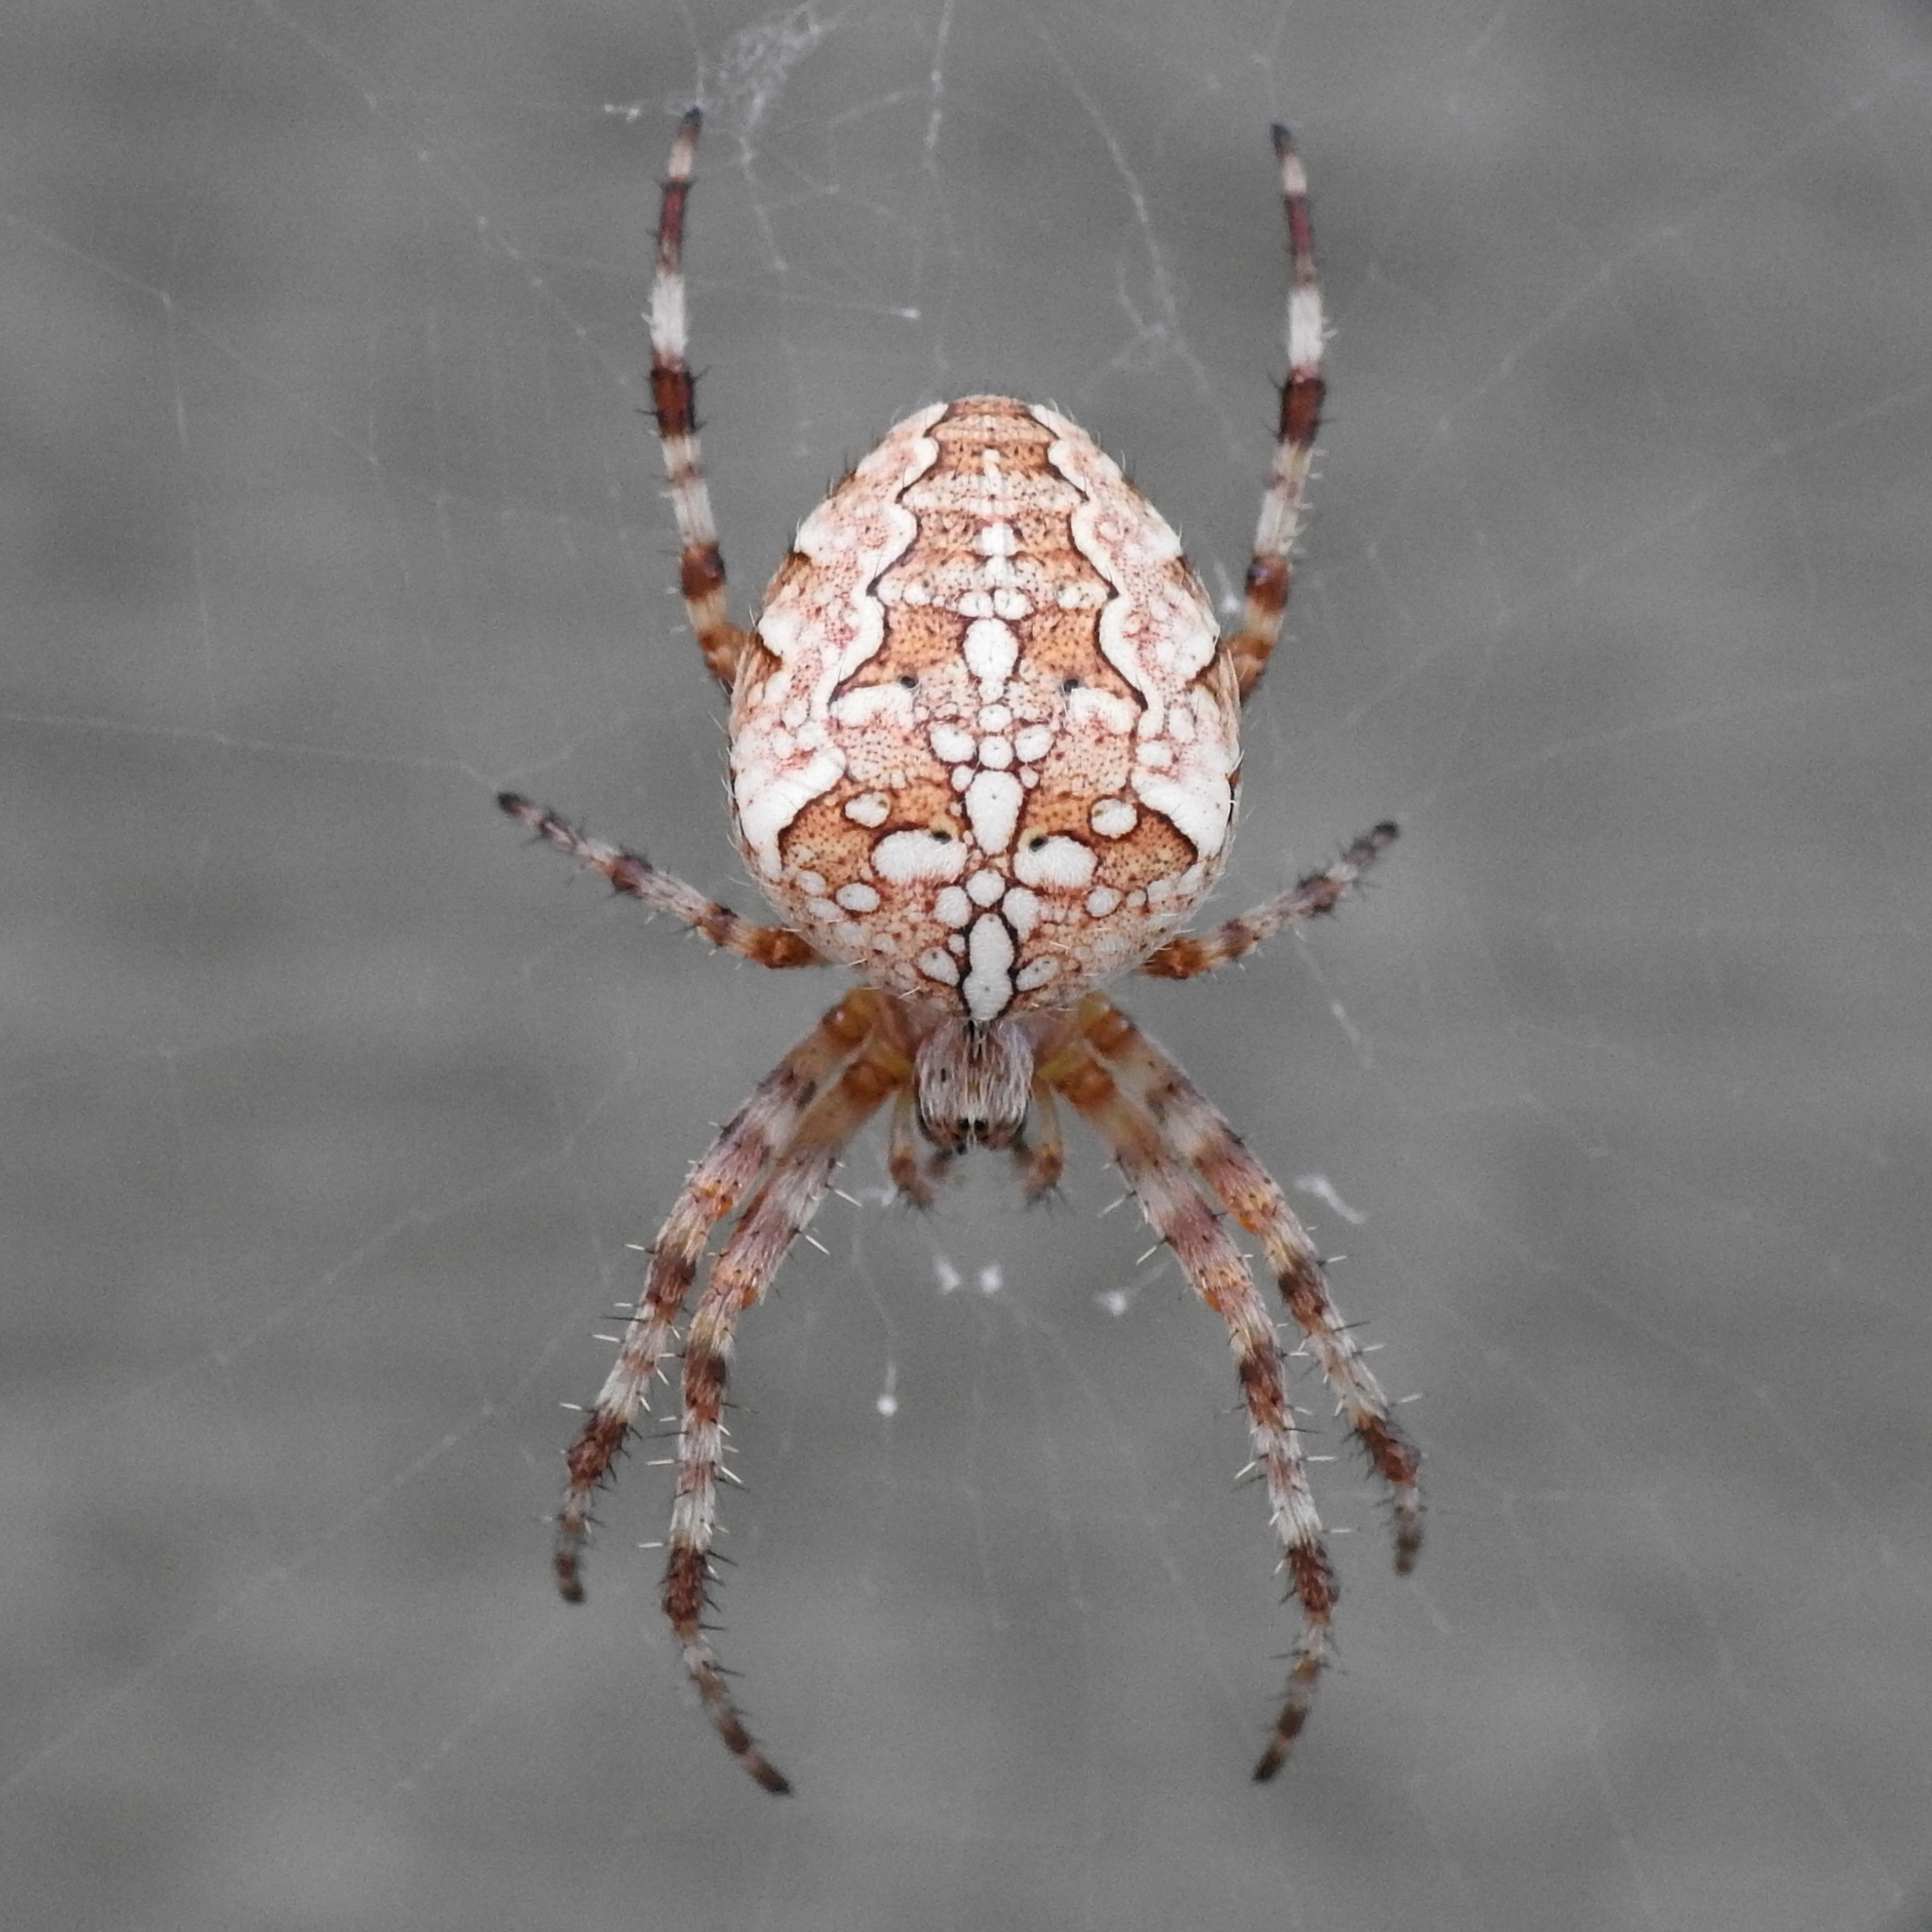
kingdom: Animalia
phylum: Arthropoda
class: Arachnida
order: Araneae
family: Araneidae
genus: Araneus
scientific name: Araneus diadematus
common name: Cross orbweaver
